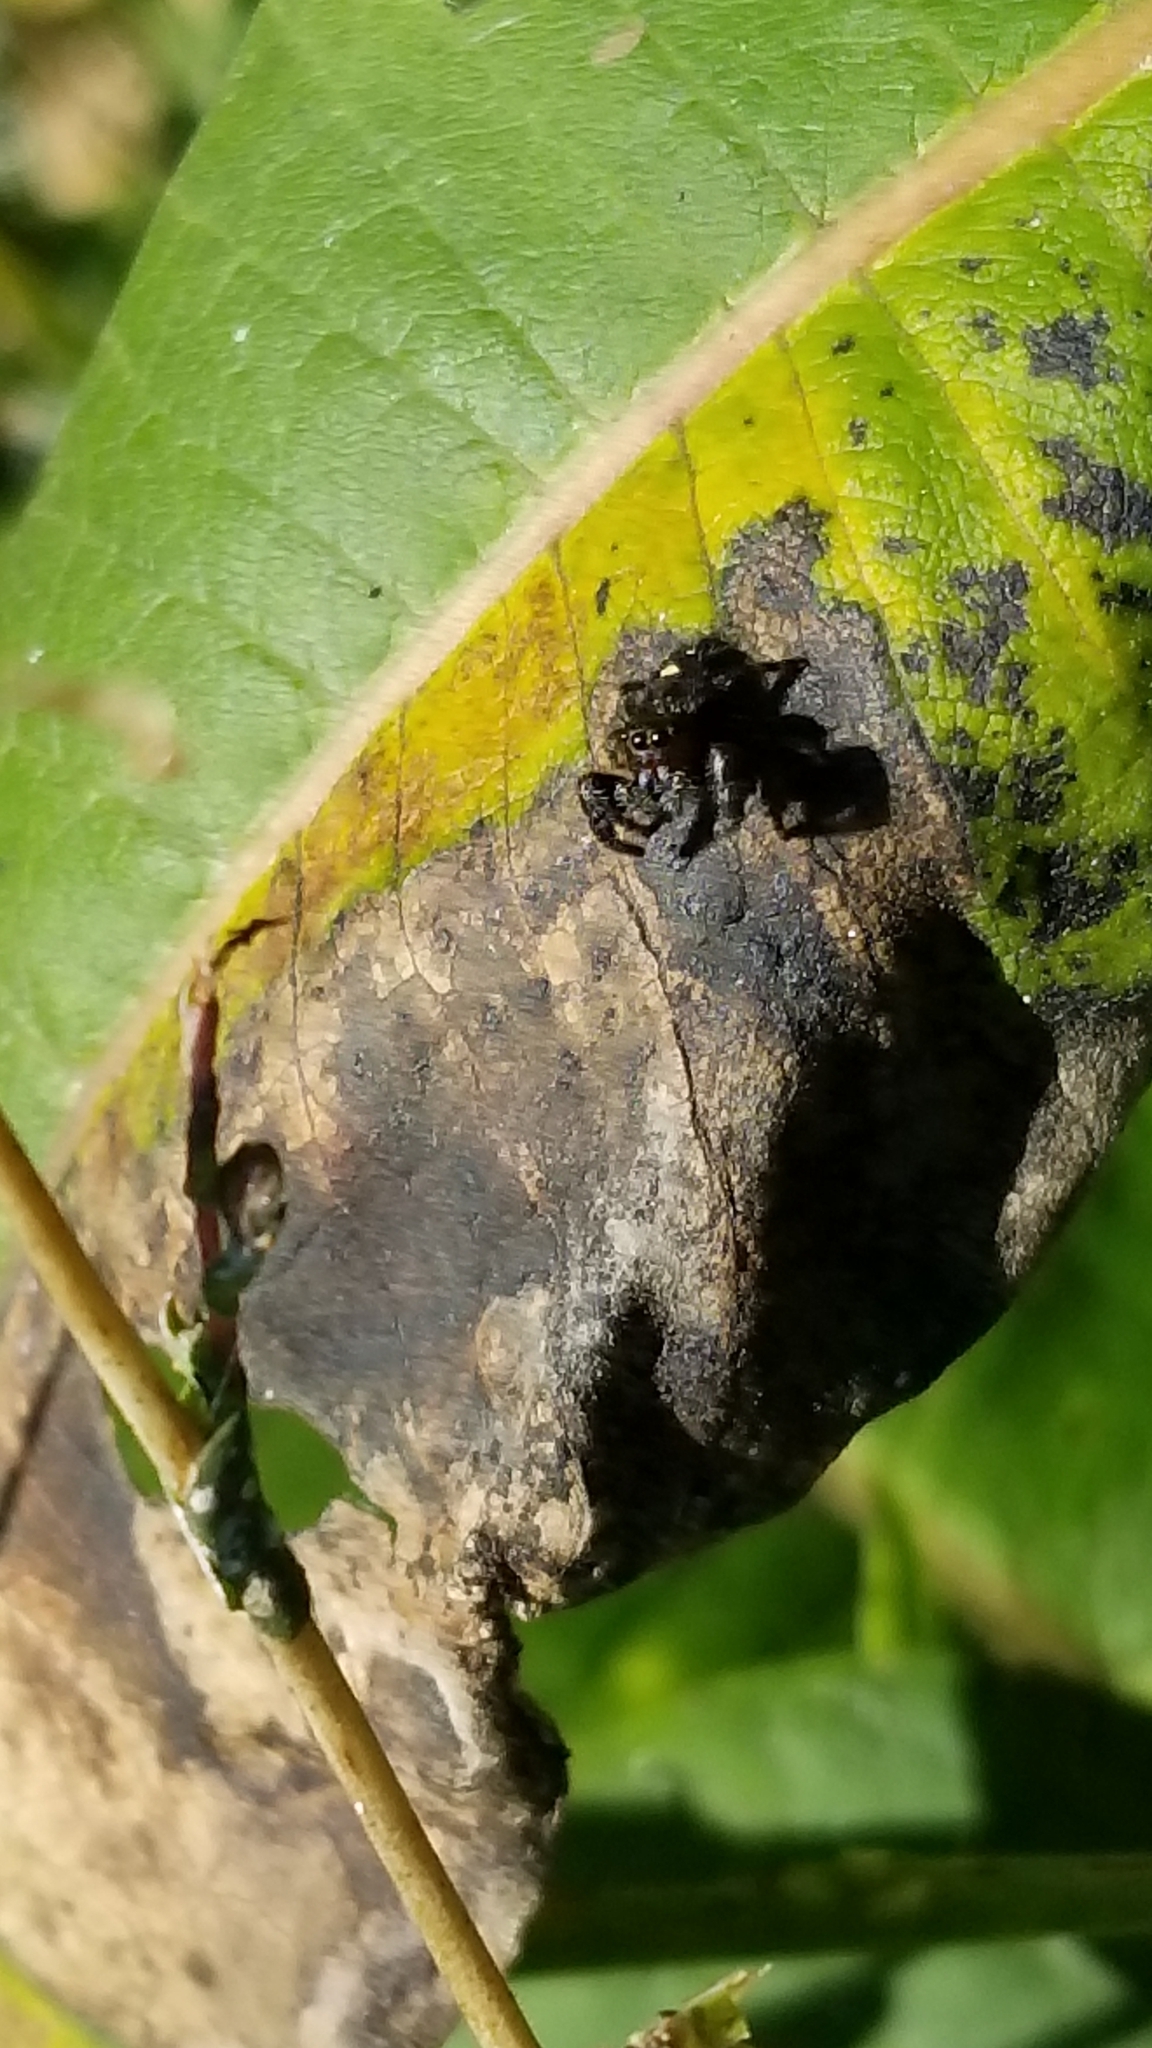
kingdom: Animalia
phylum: Arthropoda
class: Arachnida
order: Araneae
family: Salticidae
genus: Phidippus
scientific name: Phidippus audax
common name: Bold jumper
